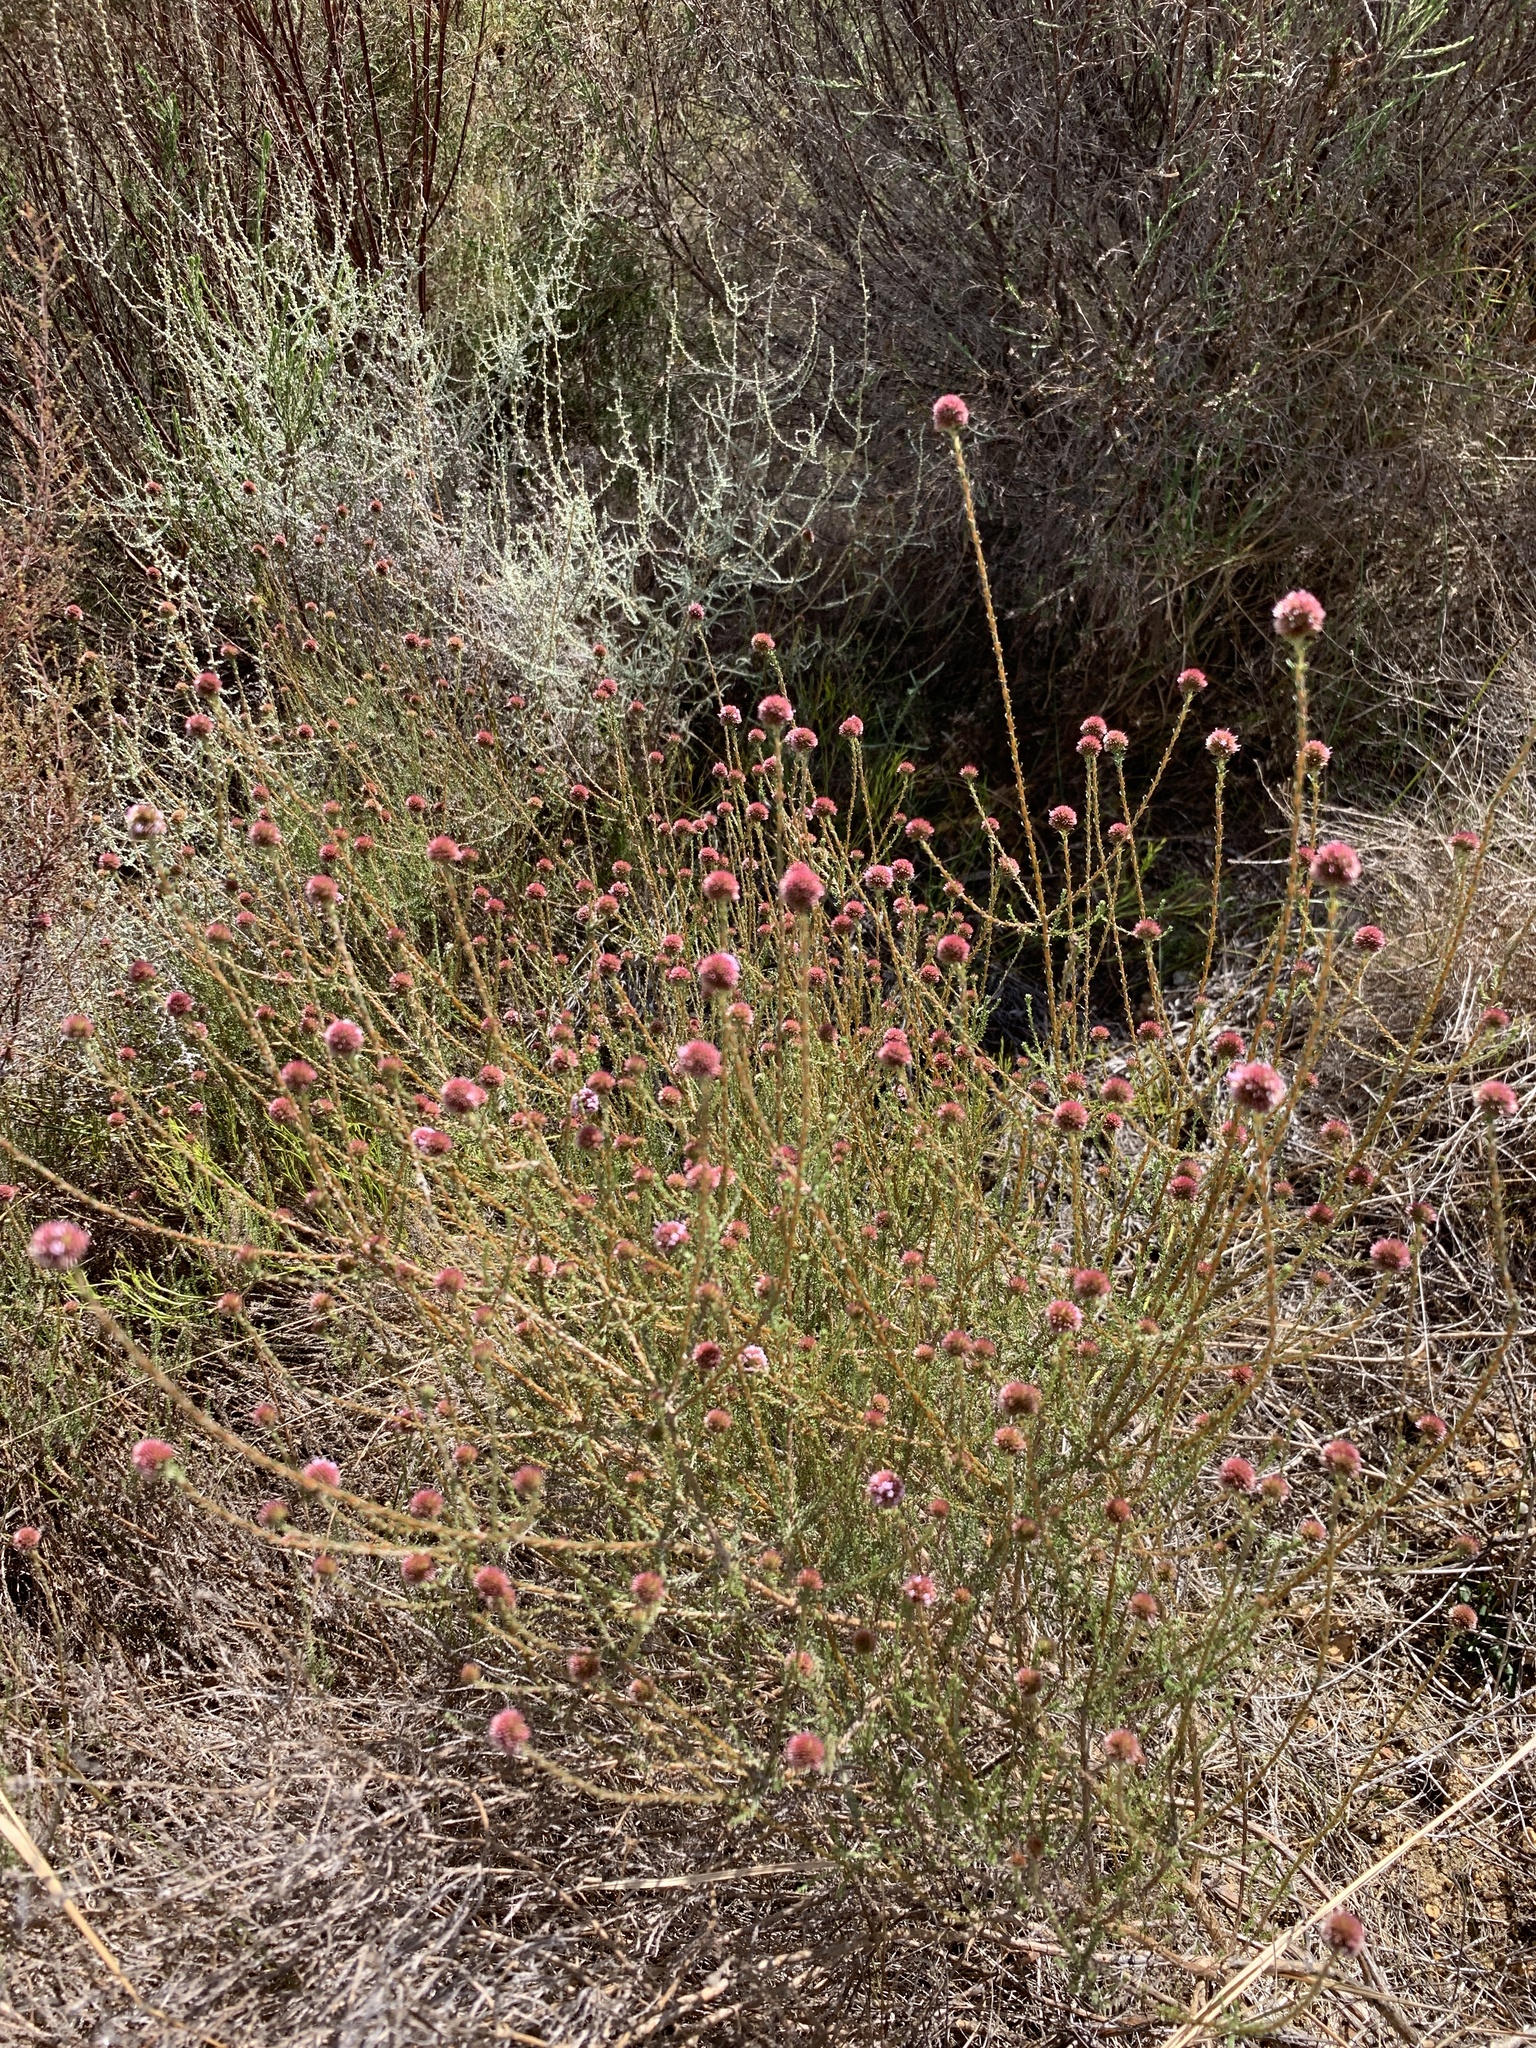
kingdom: Plantae
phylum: Tracheophyta
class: Magnoliopsida
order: Asterales
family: Asteraceae
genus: Stoebe
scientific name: Stoebe capitata
